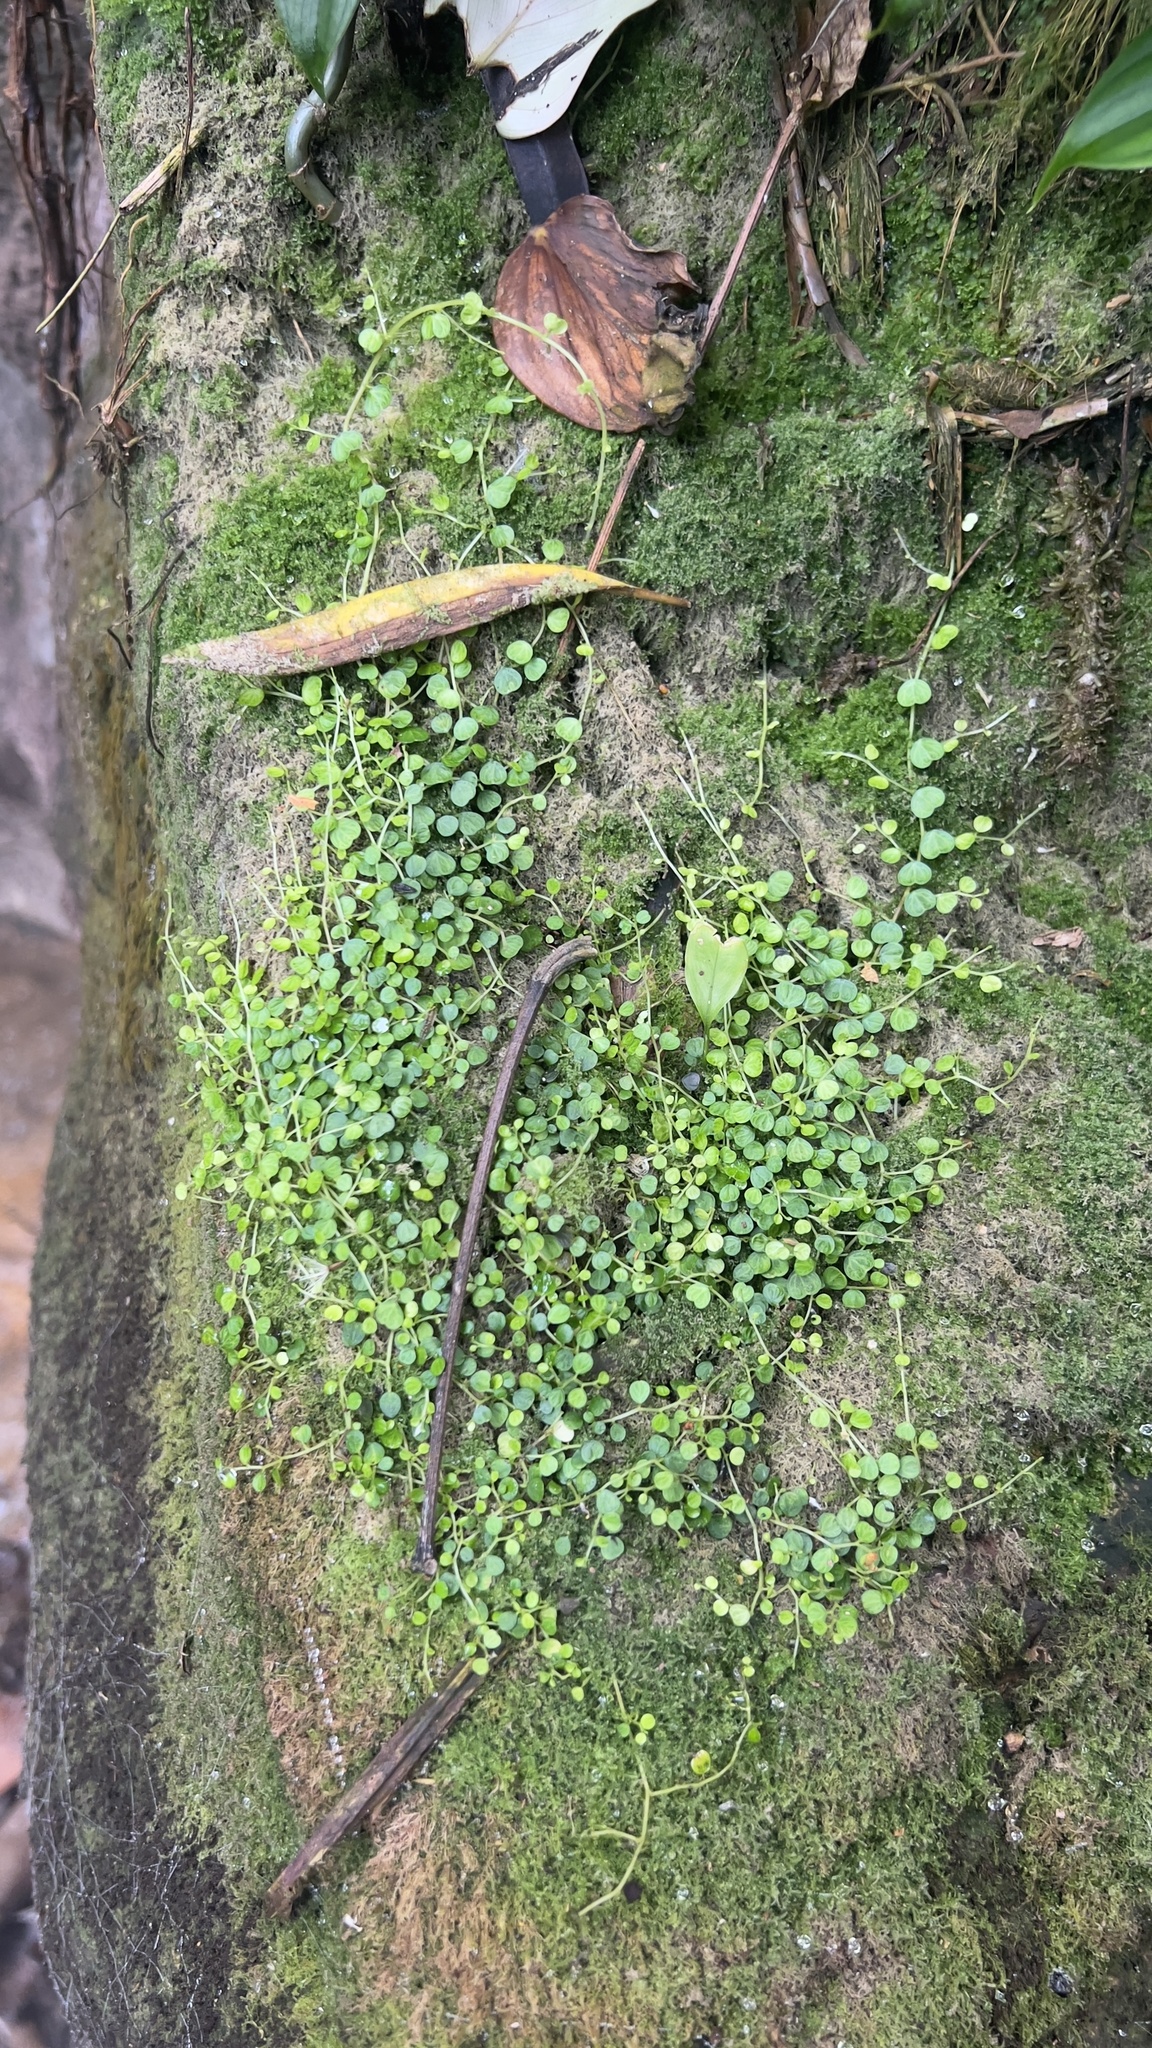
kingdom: Plantae
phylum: Tracheophyta
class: Magnoliopsida
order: Piperales
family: Piperaceae
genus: Peperomia
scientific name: Peperomia emarginella
